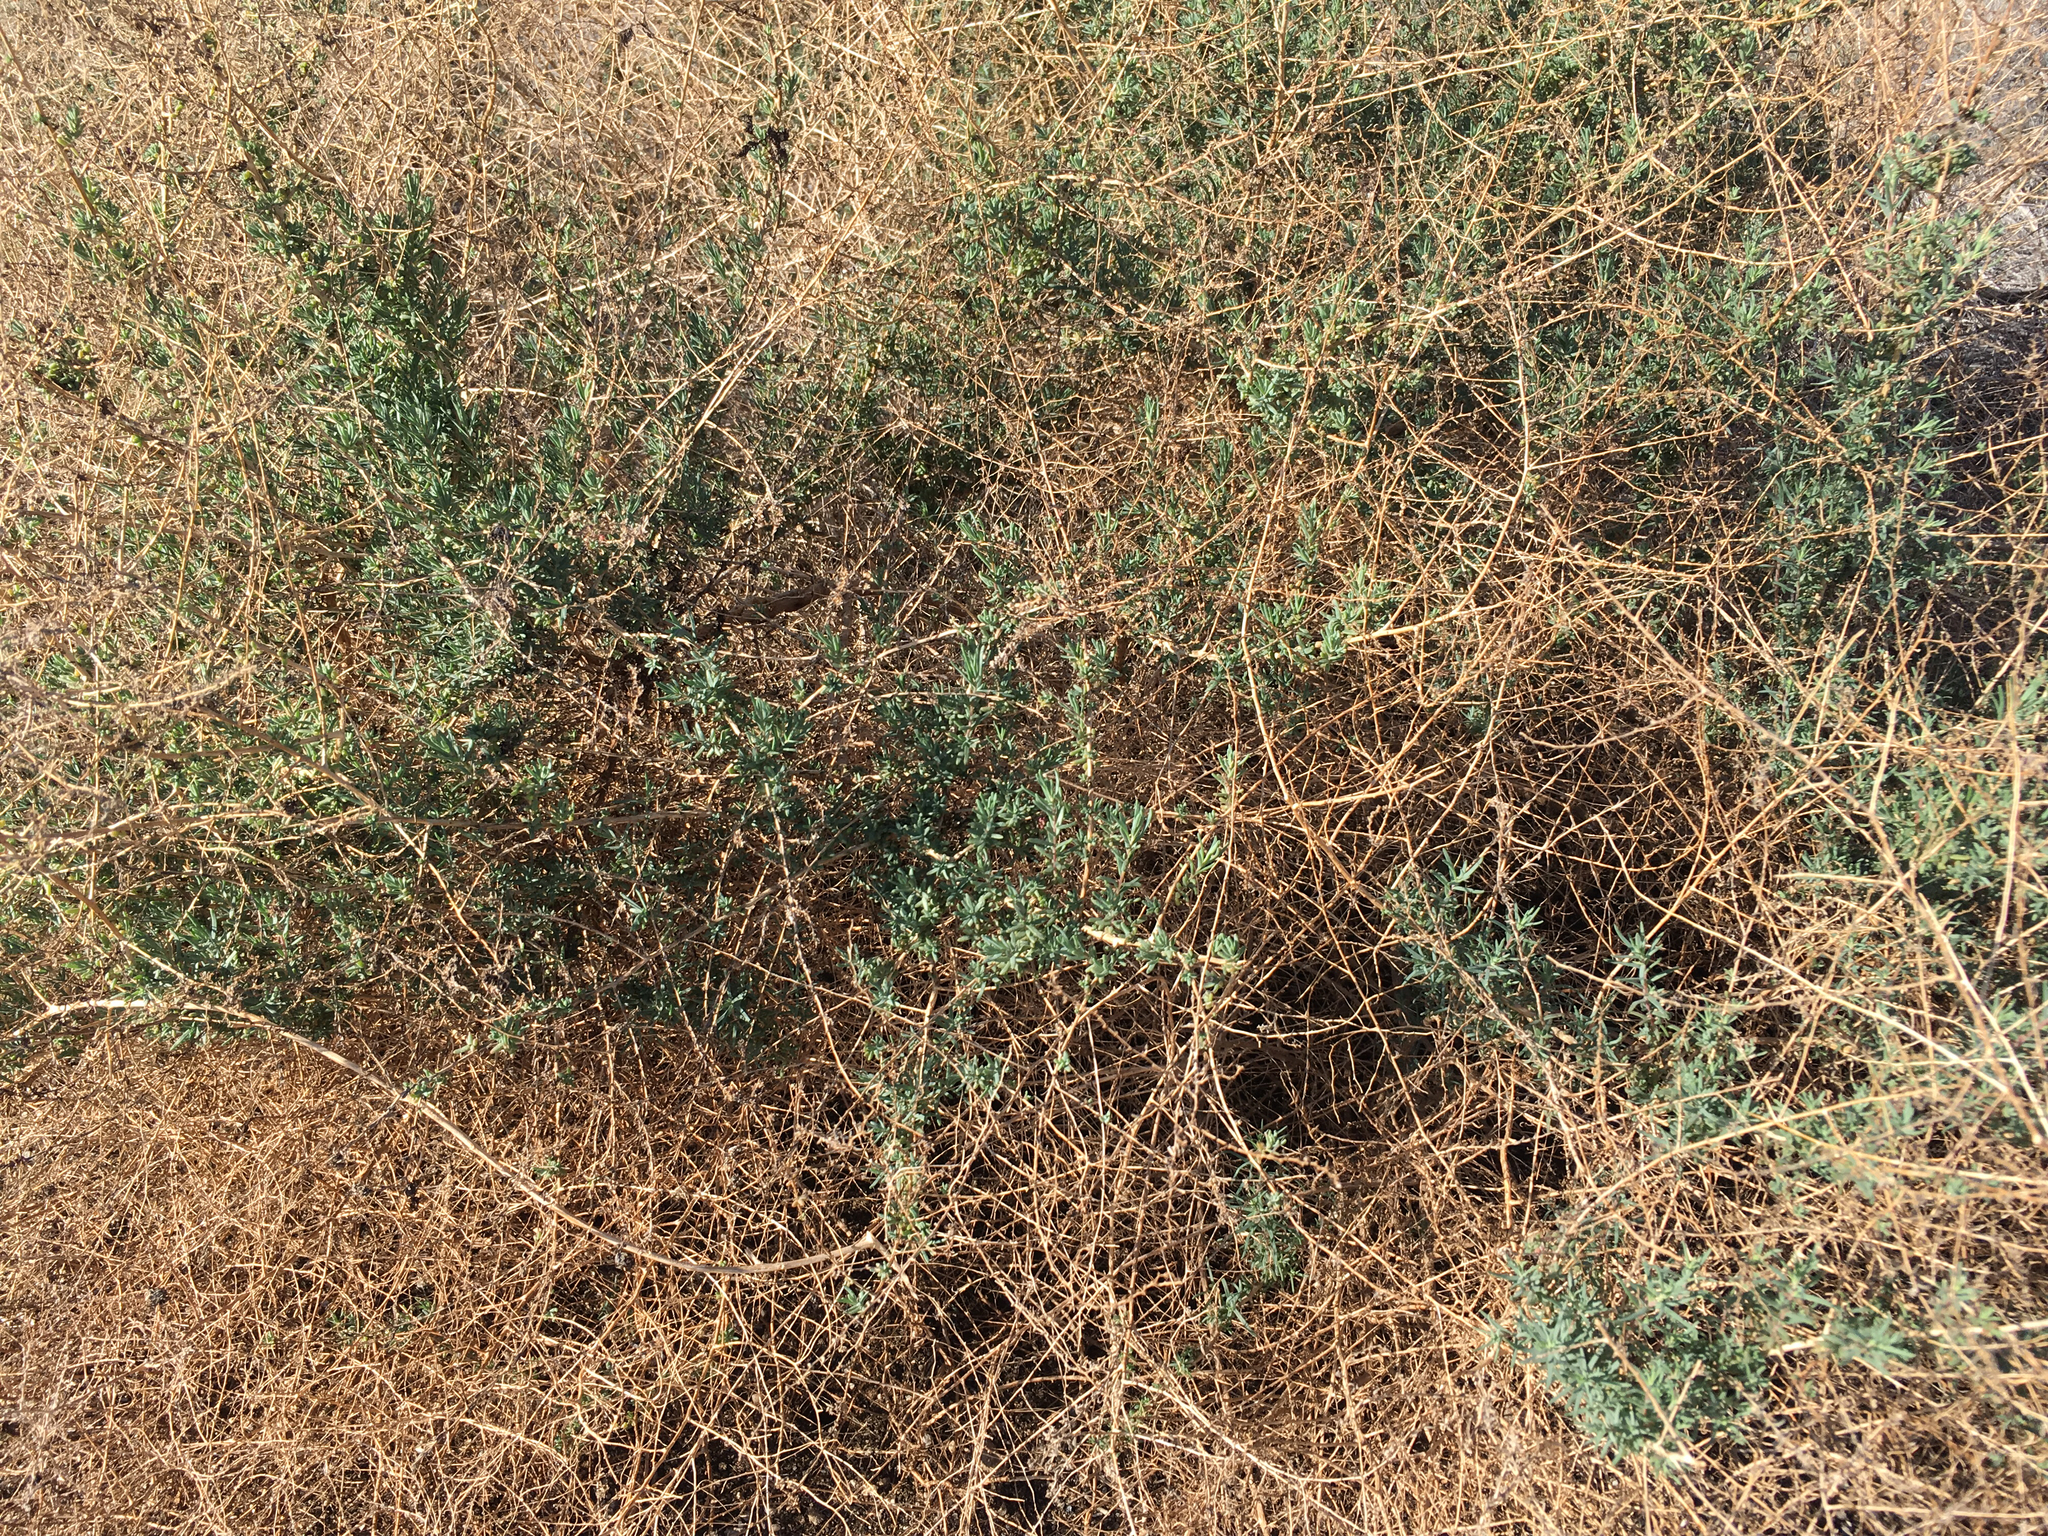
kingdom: Plantae
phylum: Tracheophyta
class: Magnoliopsida
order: Caryophyllales
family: Amaranthaceae
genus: Suaeda
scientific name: Suaeda nigra
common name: Bush seepweed
